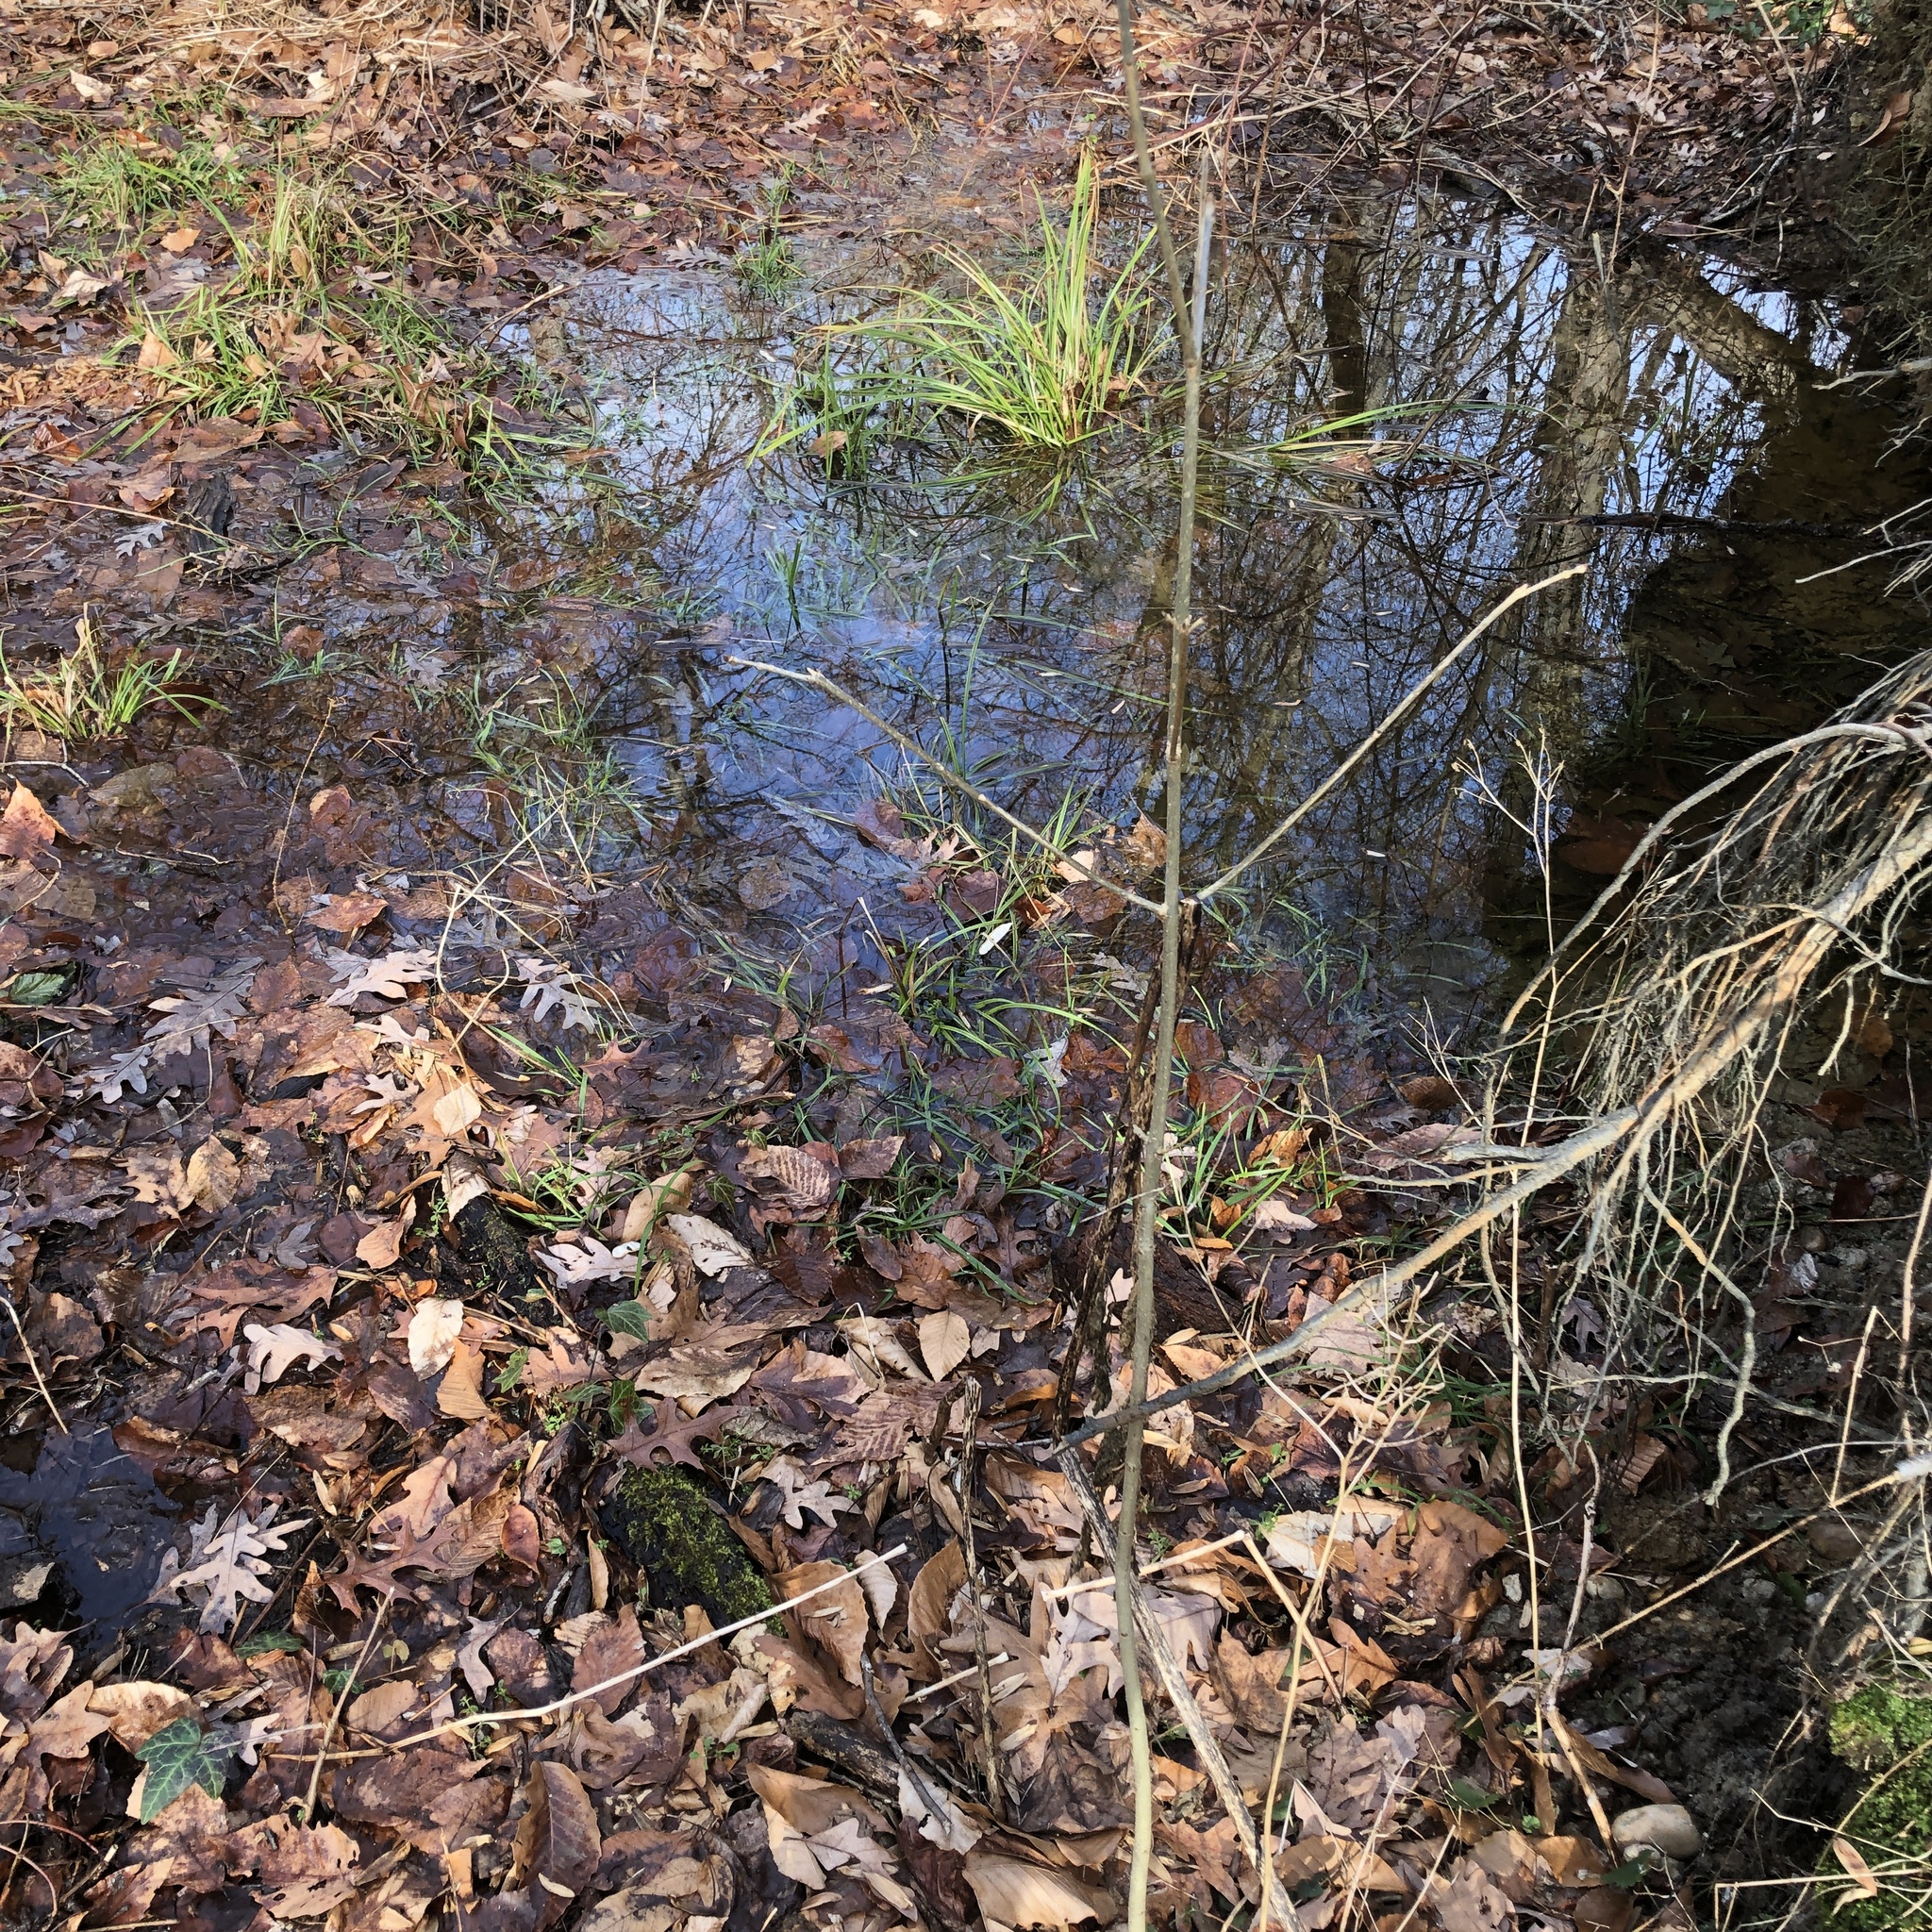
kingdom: Plantae
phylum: Tracheophyta
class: Magnoliopsida
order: Lamiales
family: Oleaceae
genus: Fraxinus
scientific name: Fraxinus americana
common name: White ash
